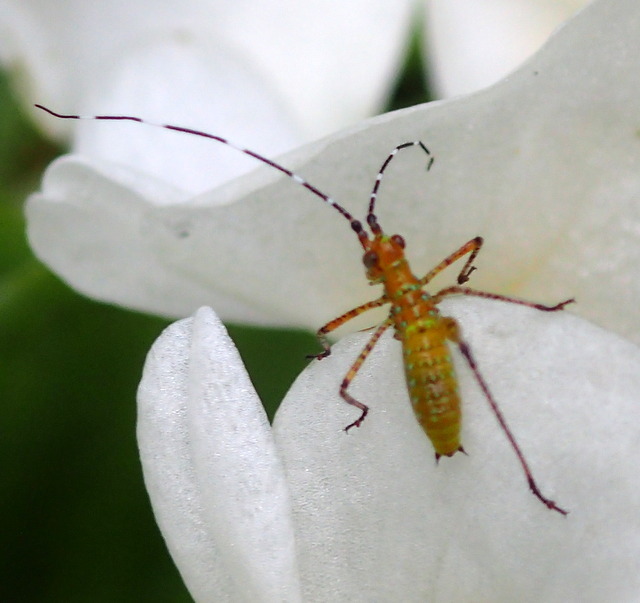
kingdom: Animalia
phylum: Arthropoda
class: Insecta
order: Orthoptera
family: Tettigoniidae
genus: Scudderia
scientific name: Scudderia cuneata
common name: Southeastern bush katydid
